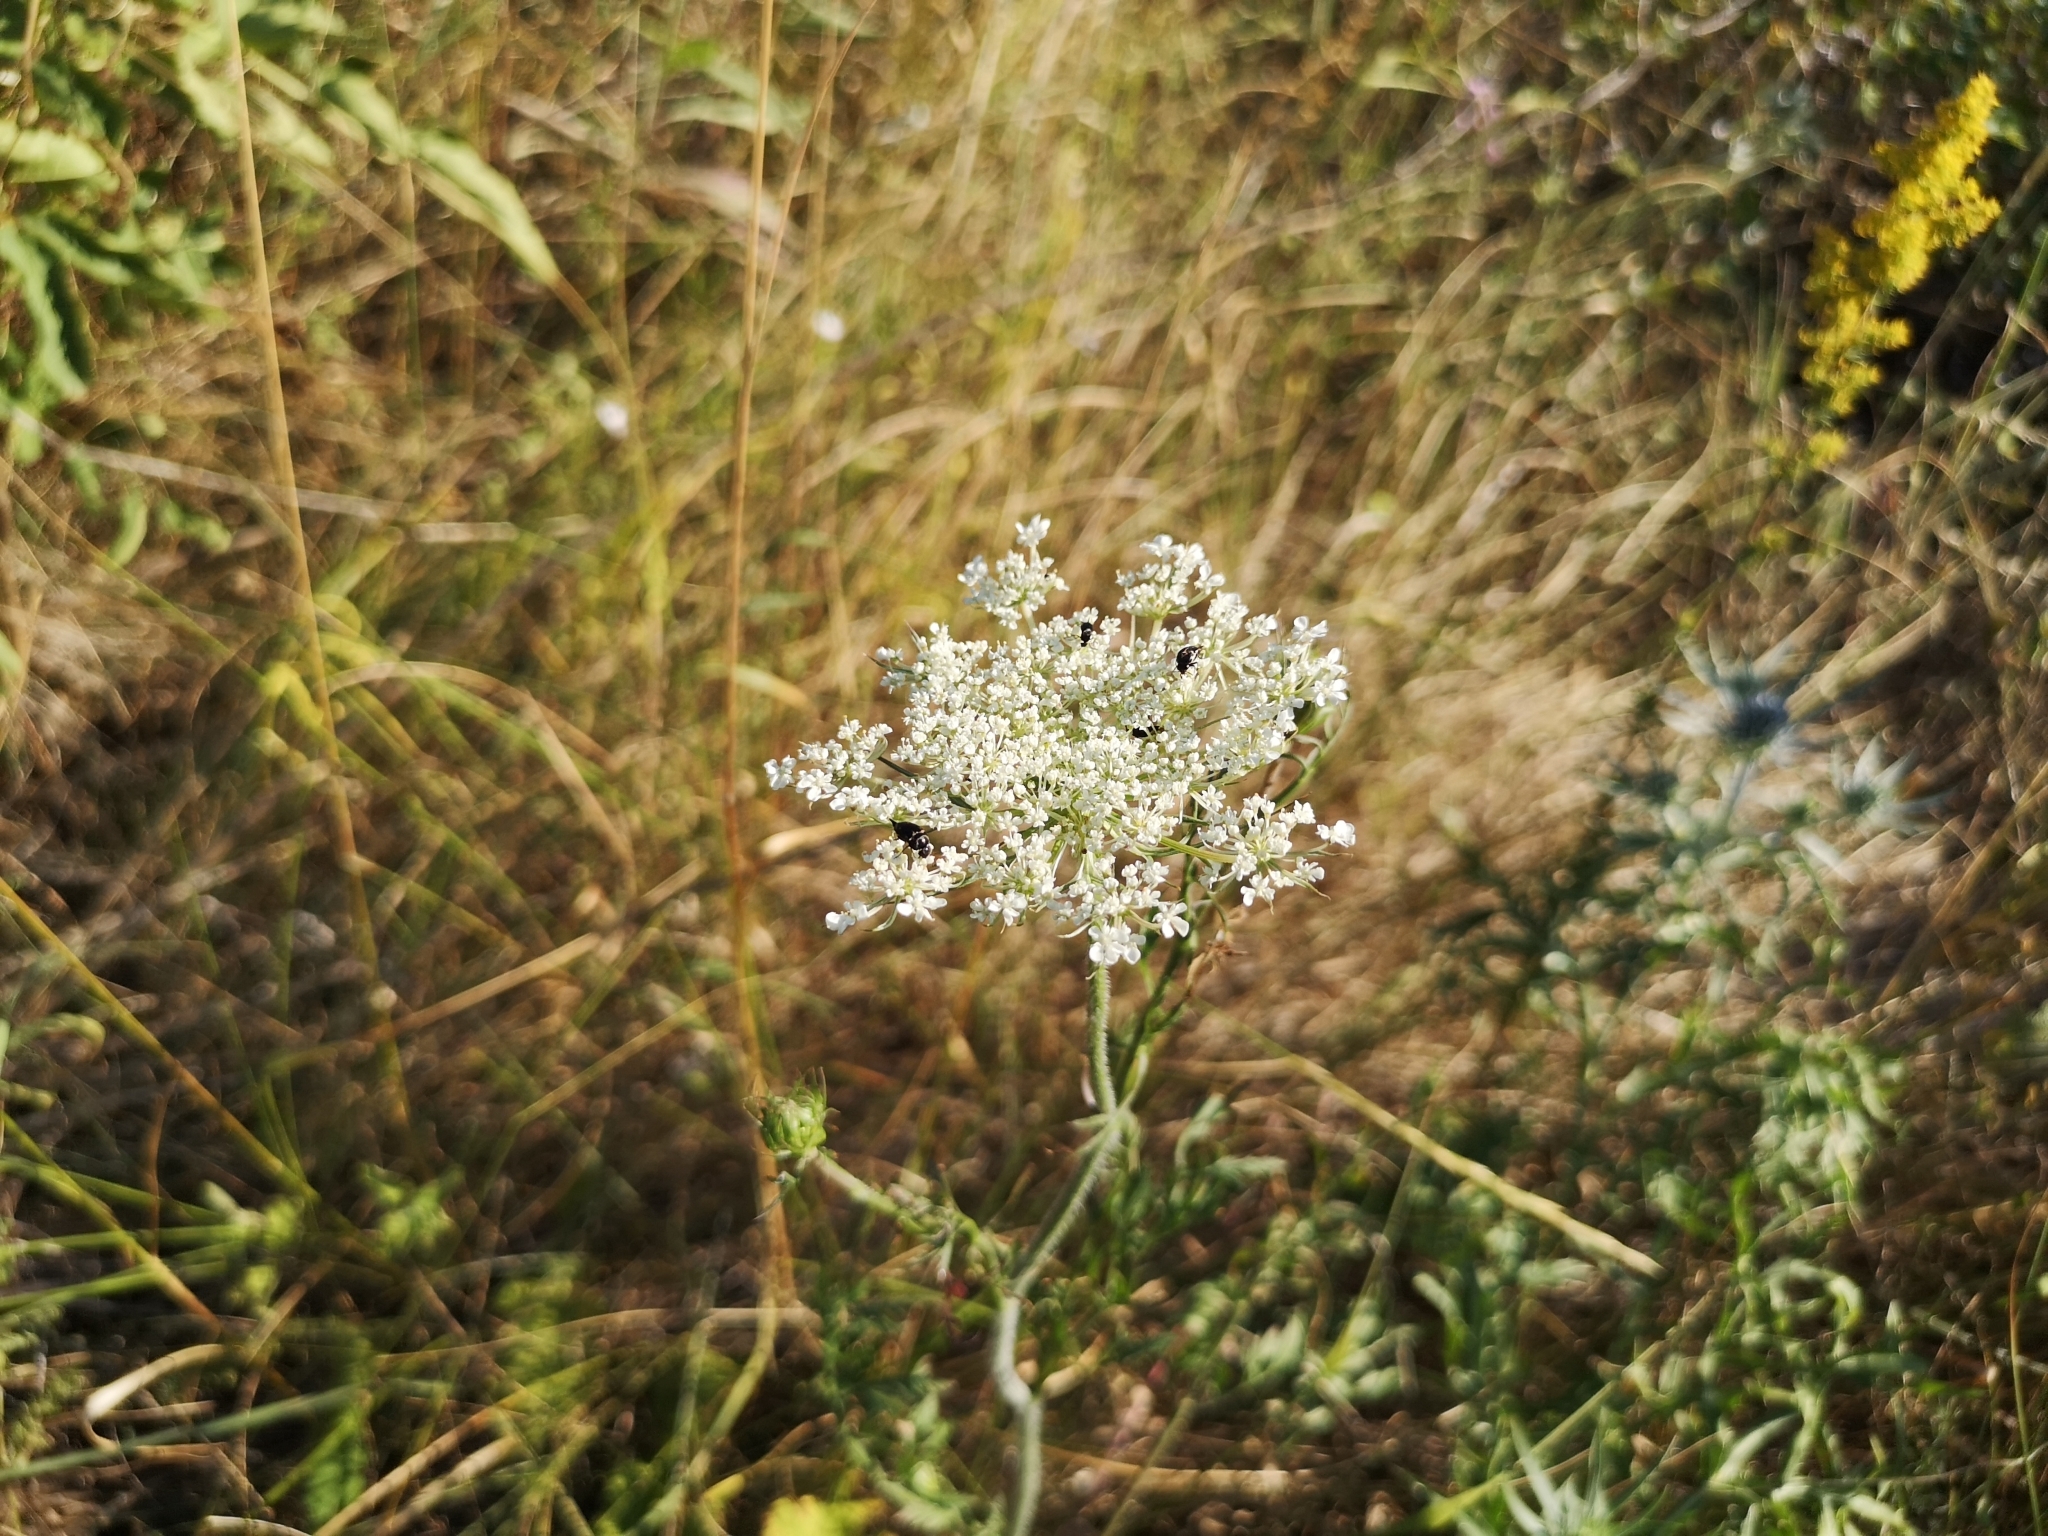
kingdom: Plantae
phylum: Tracheophyta
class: Magnoliopsida
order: Apiales
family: Apiaceae
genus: Daucus
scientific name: Daucus carota
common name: Wild carrot
